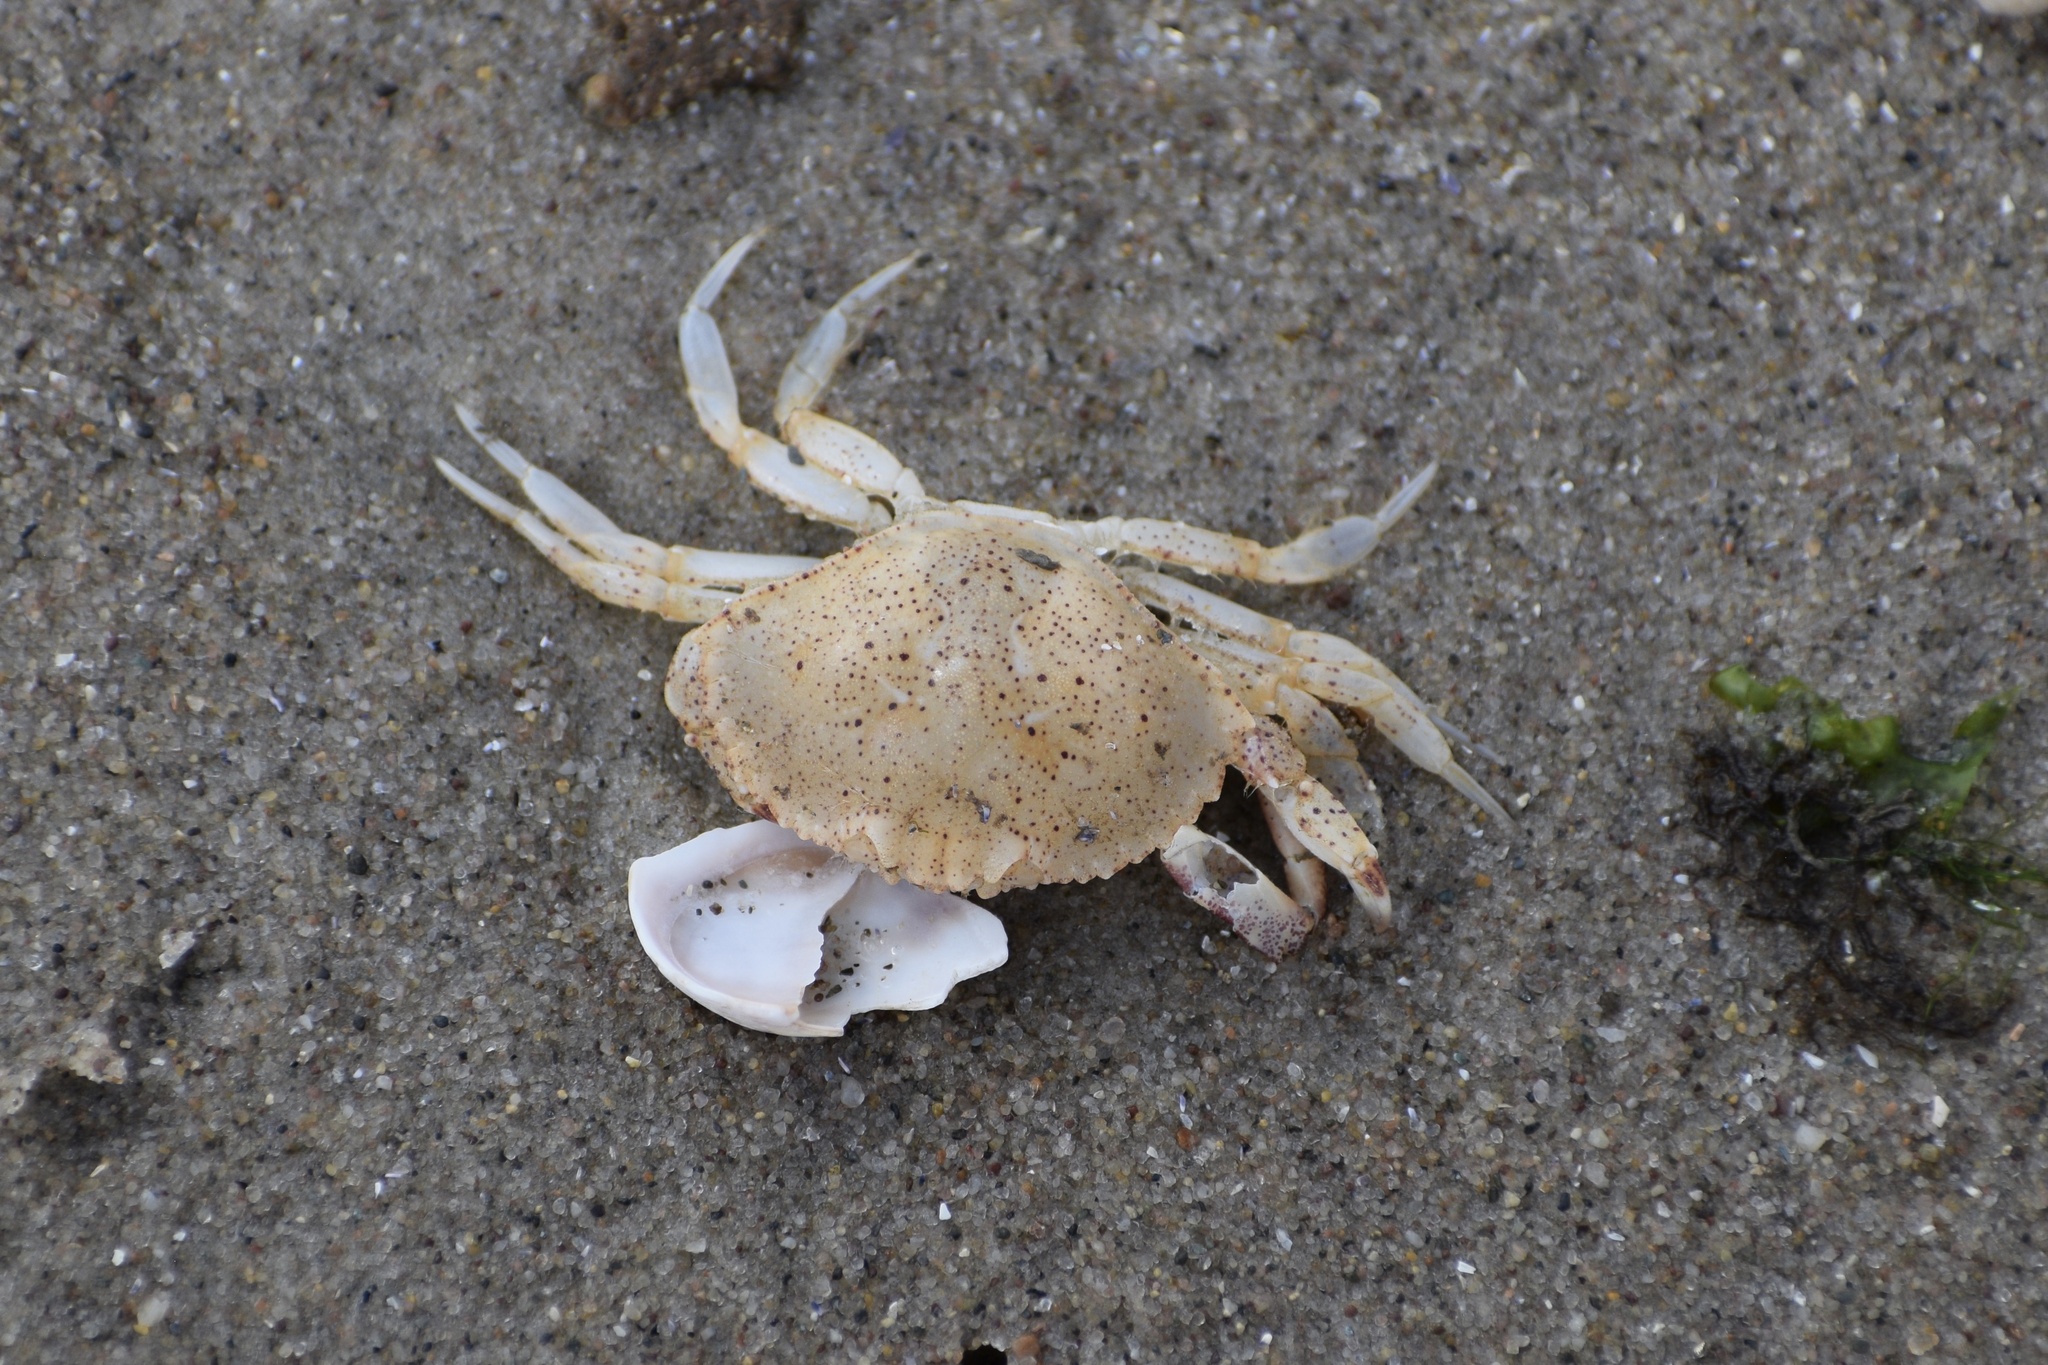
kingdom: Animalia
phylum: Arthropoda
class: Malacostraca
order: Decapoda
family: Cancridae
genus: Cancer
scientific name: Cancer irroratus
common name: Atlantic rock crab
